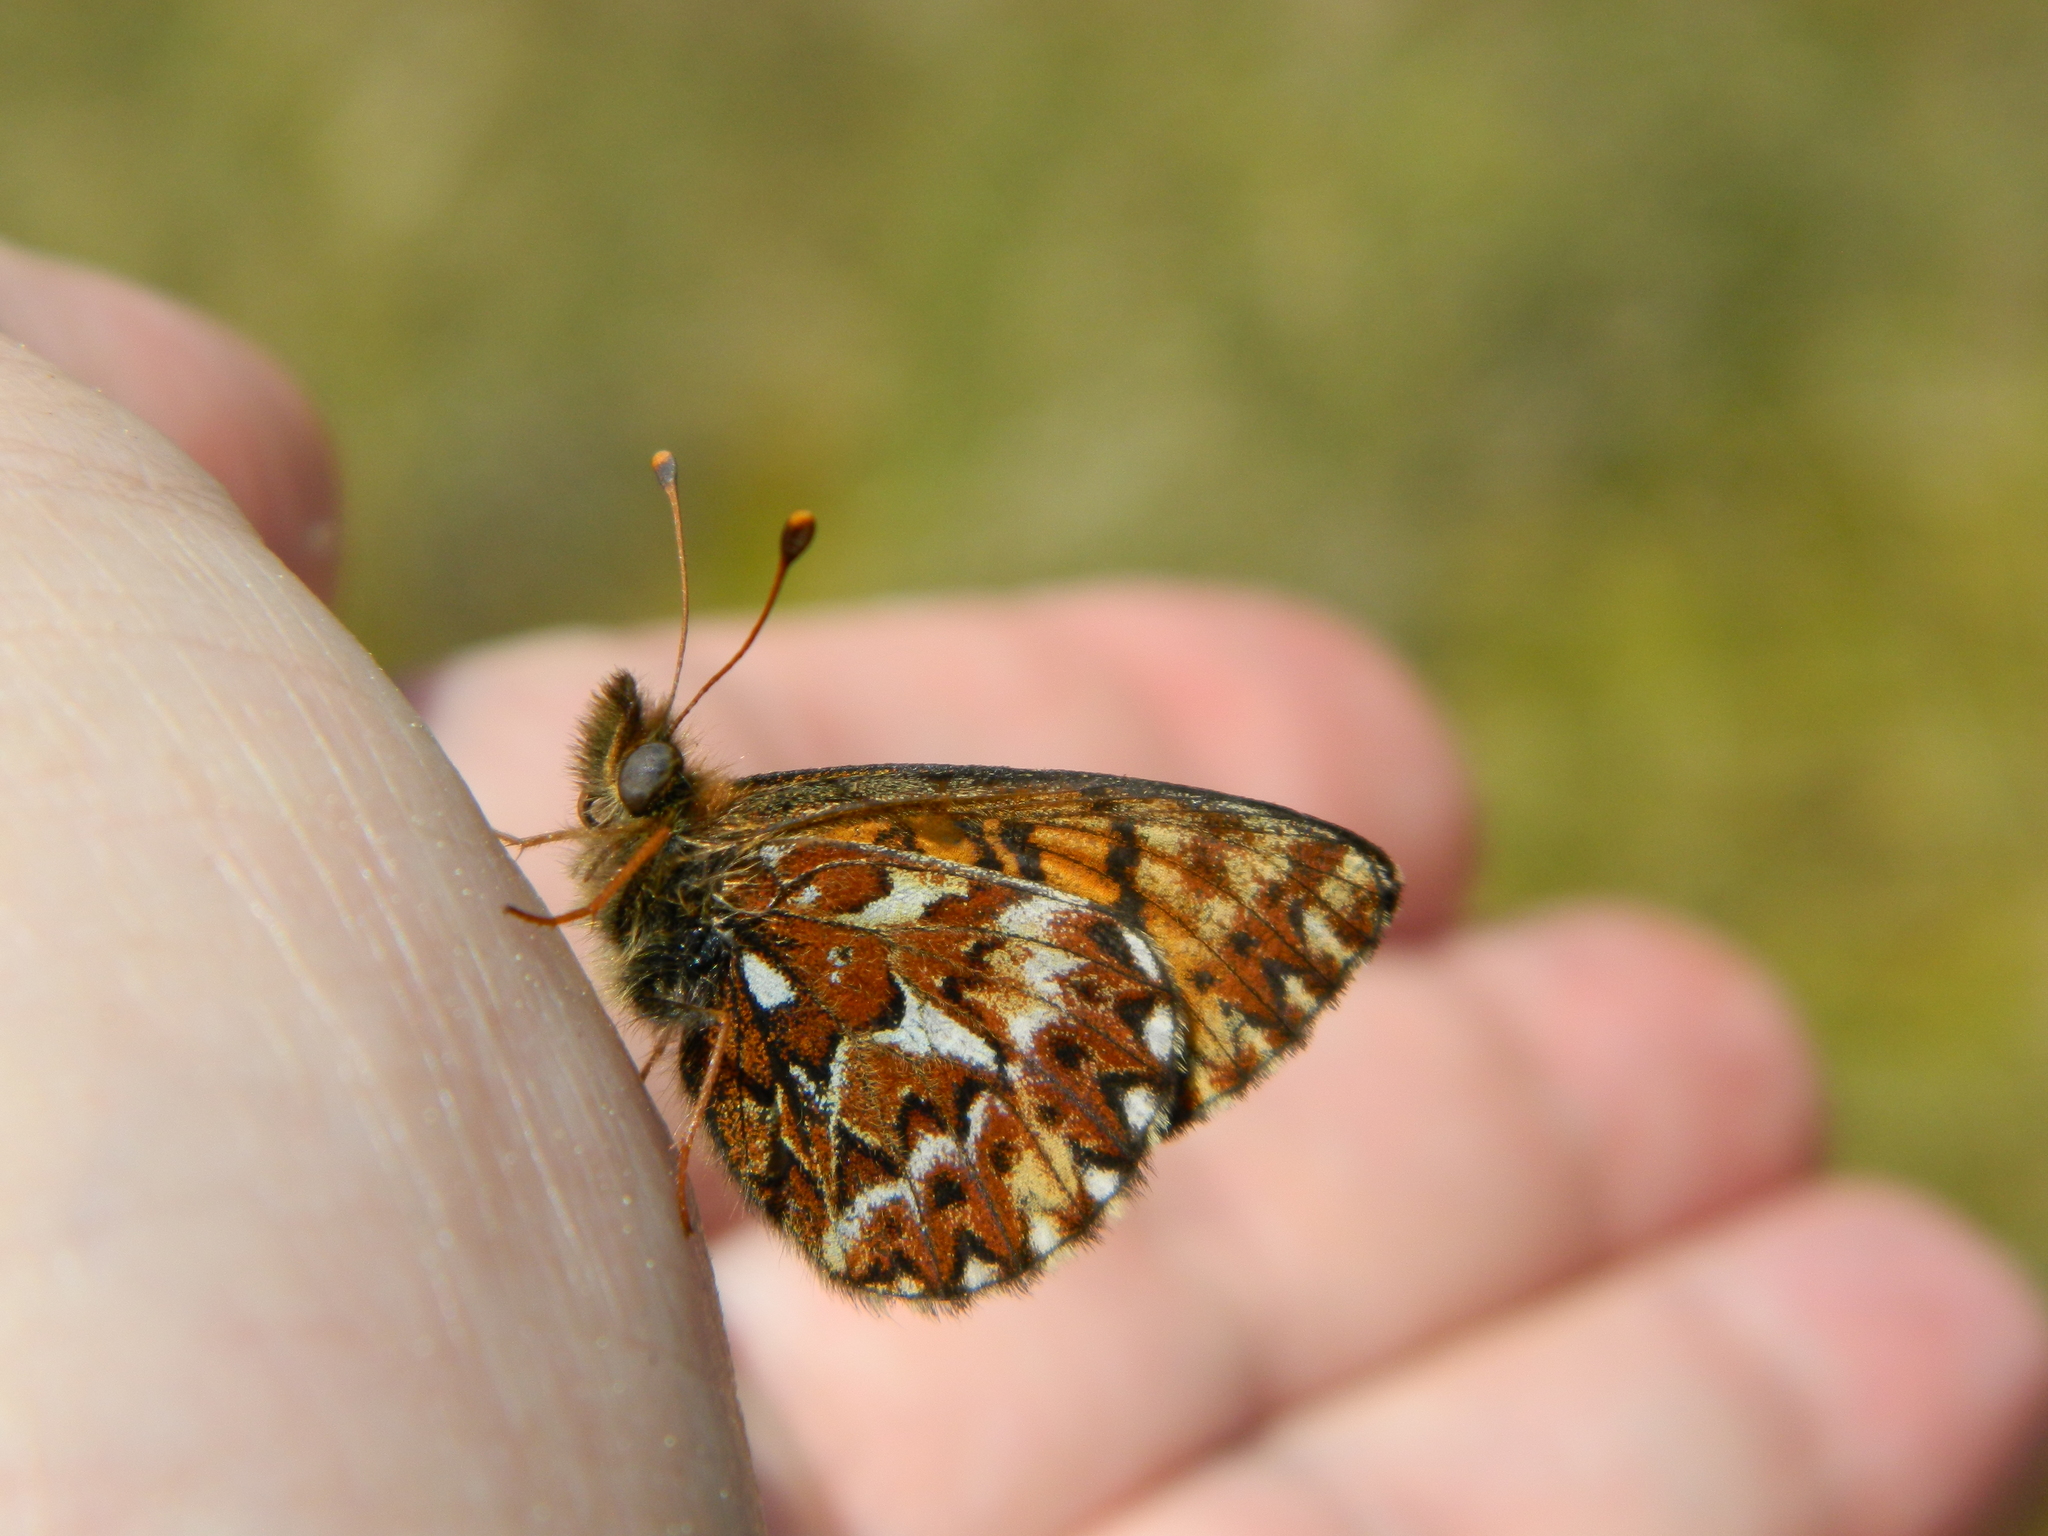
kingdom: Animalia
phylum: Arthropoda
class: Insecta
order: Lepidoptera
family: Nymphalidae
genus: Boloria
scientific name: Boloria freija
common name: Freija fritillary
